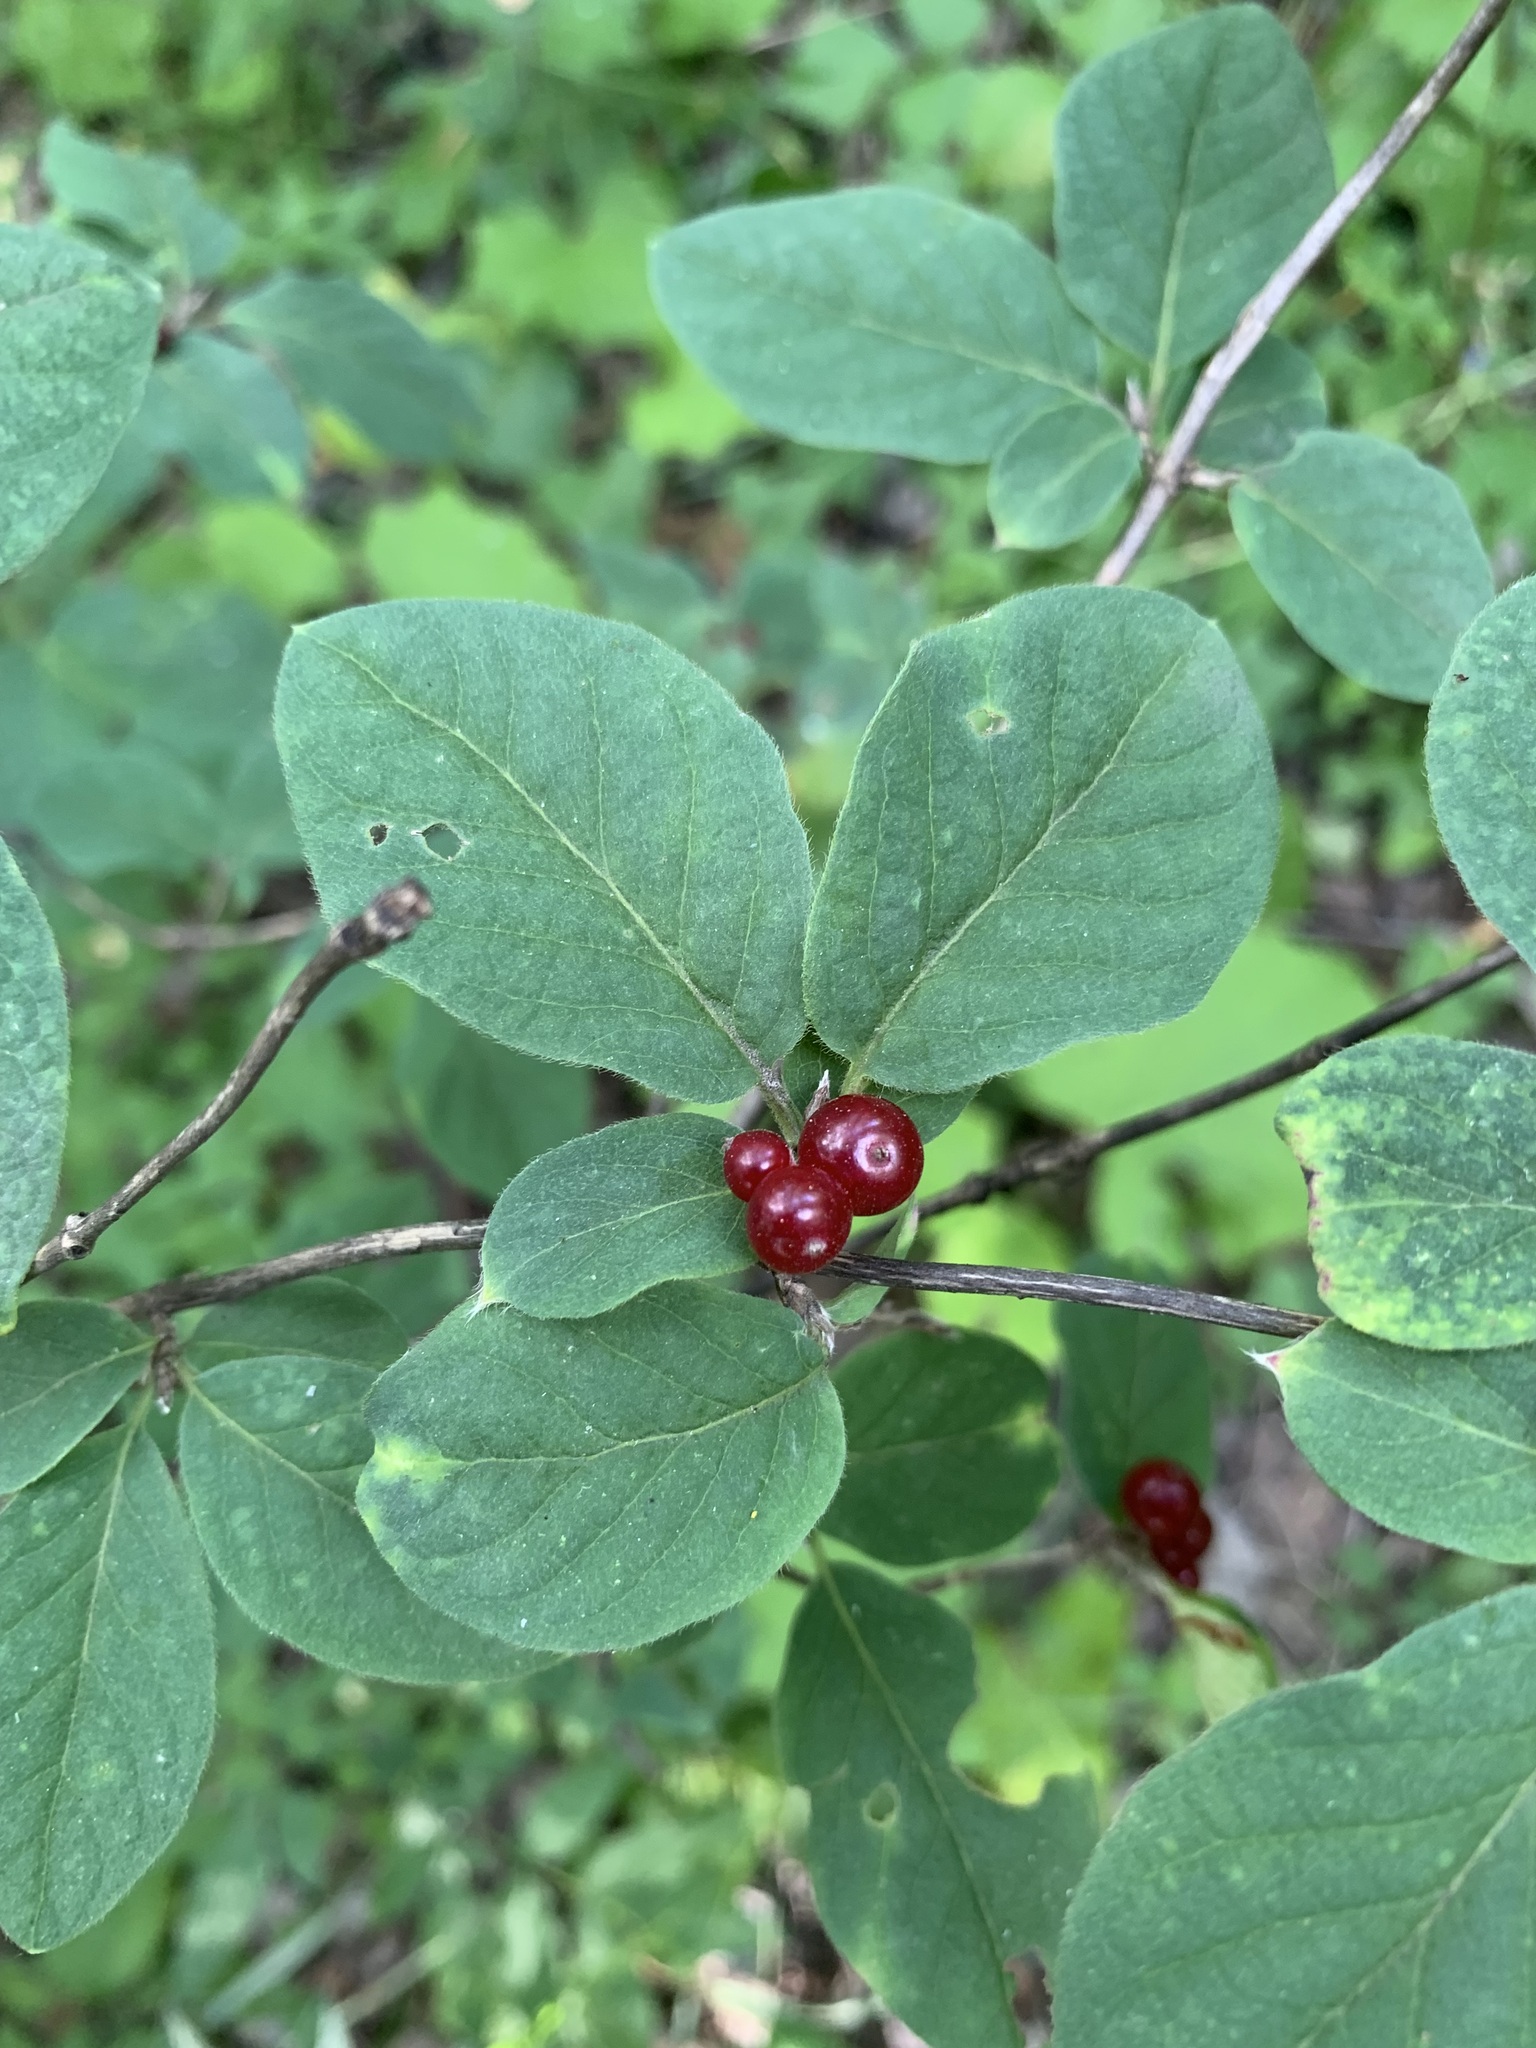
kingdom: Plantae
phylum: Tracheophyta
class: Magnoliopsida
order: Dipsacales
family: Caprifoliaceae
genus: Lonicera
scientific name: Lonicera xylosteum
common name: Fly honeysuckle
